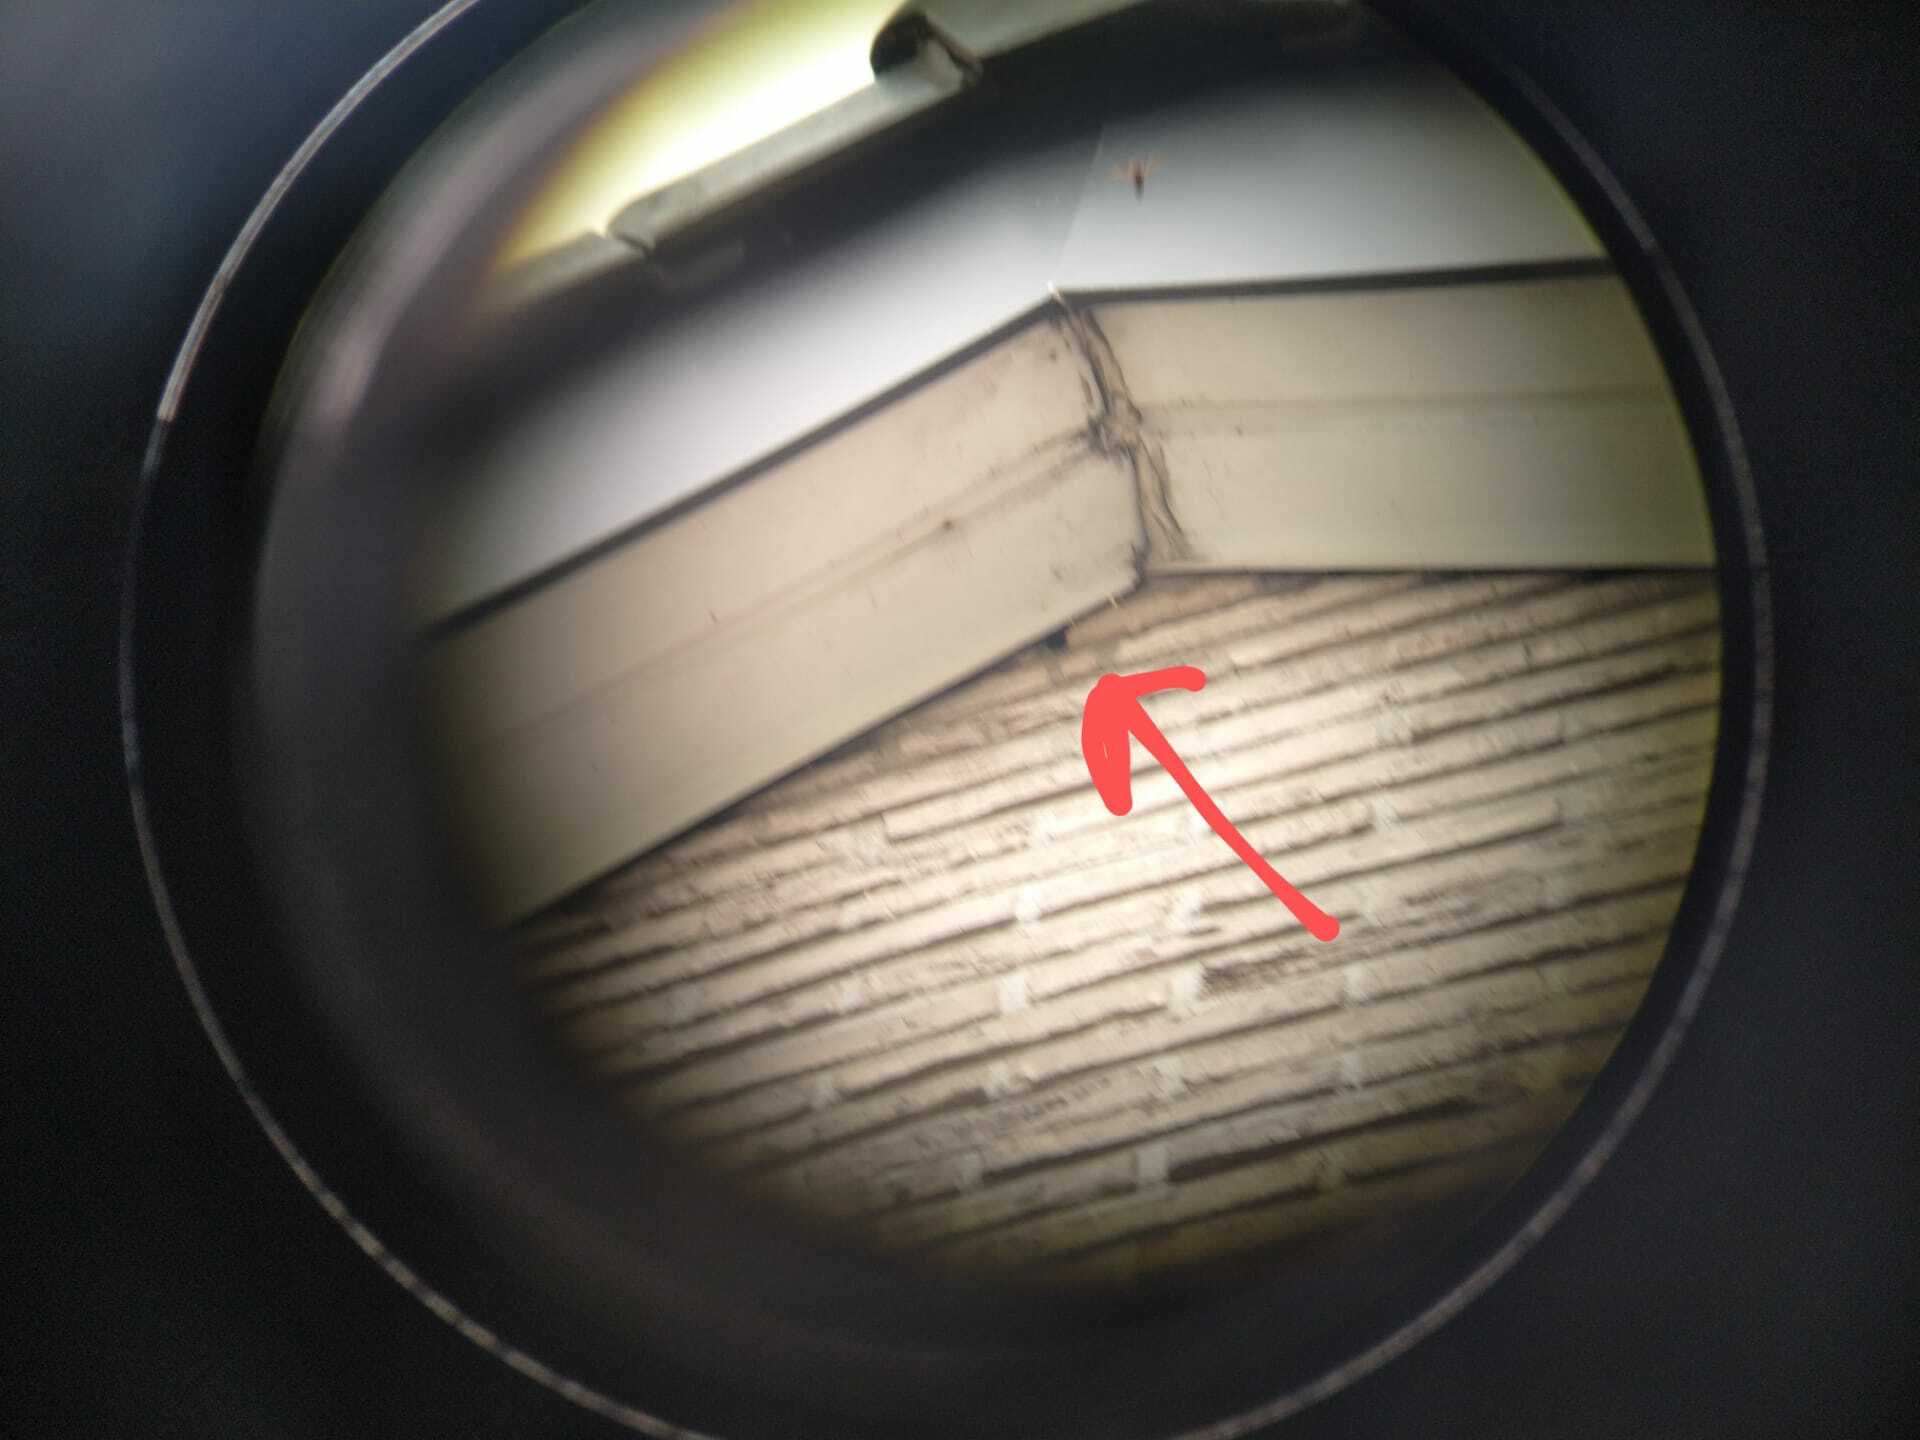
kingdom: Animalia
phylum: Arthropoda
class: Insecta
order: Hymenoptera
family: Vespidae
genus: Vespa
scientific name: Vespa velutina
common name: Asian hornet
